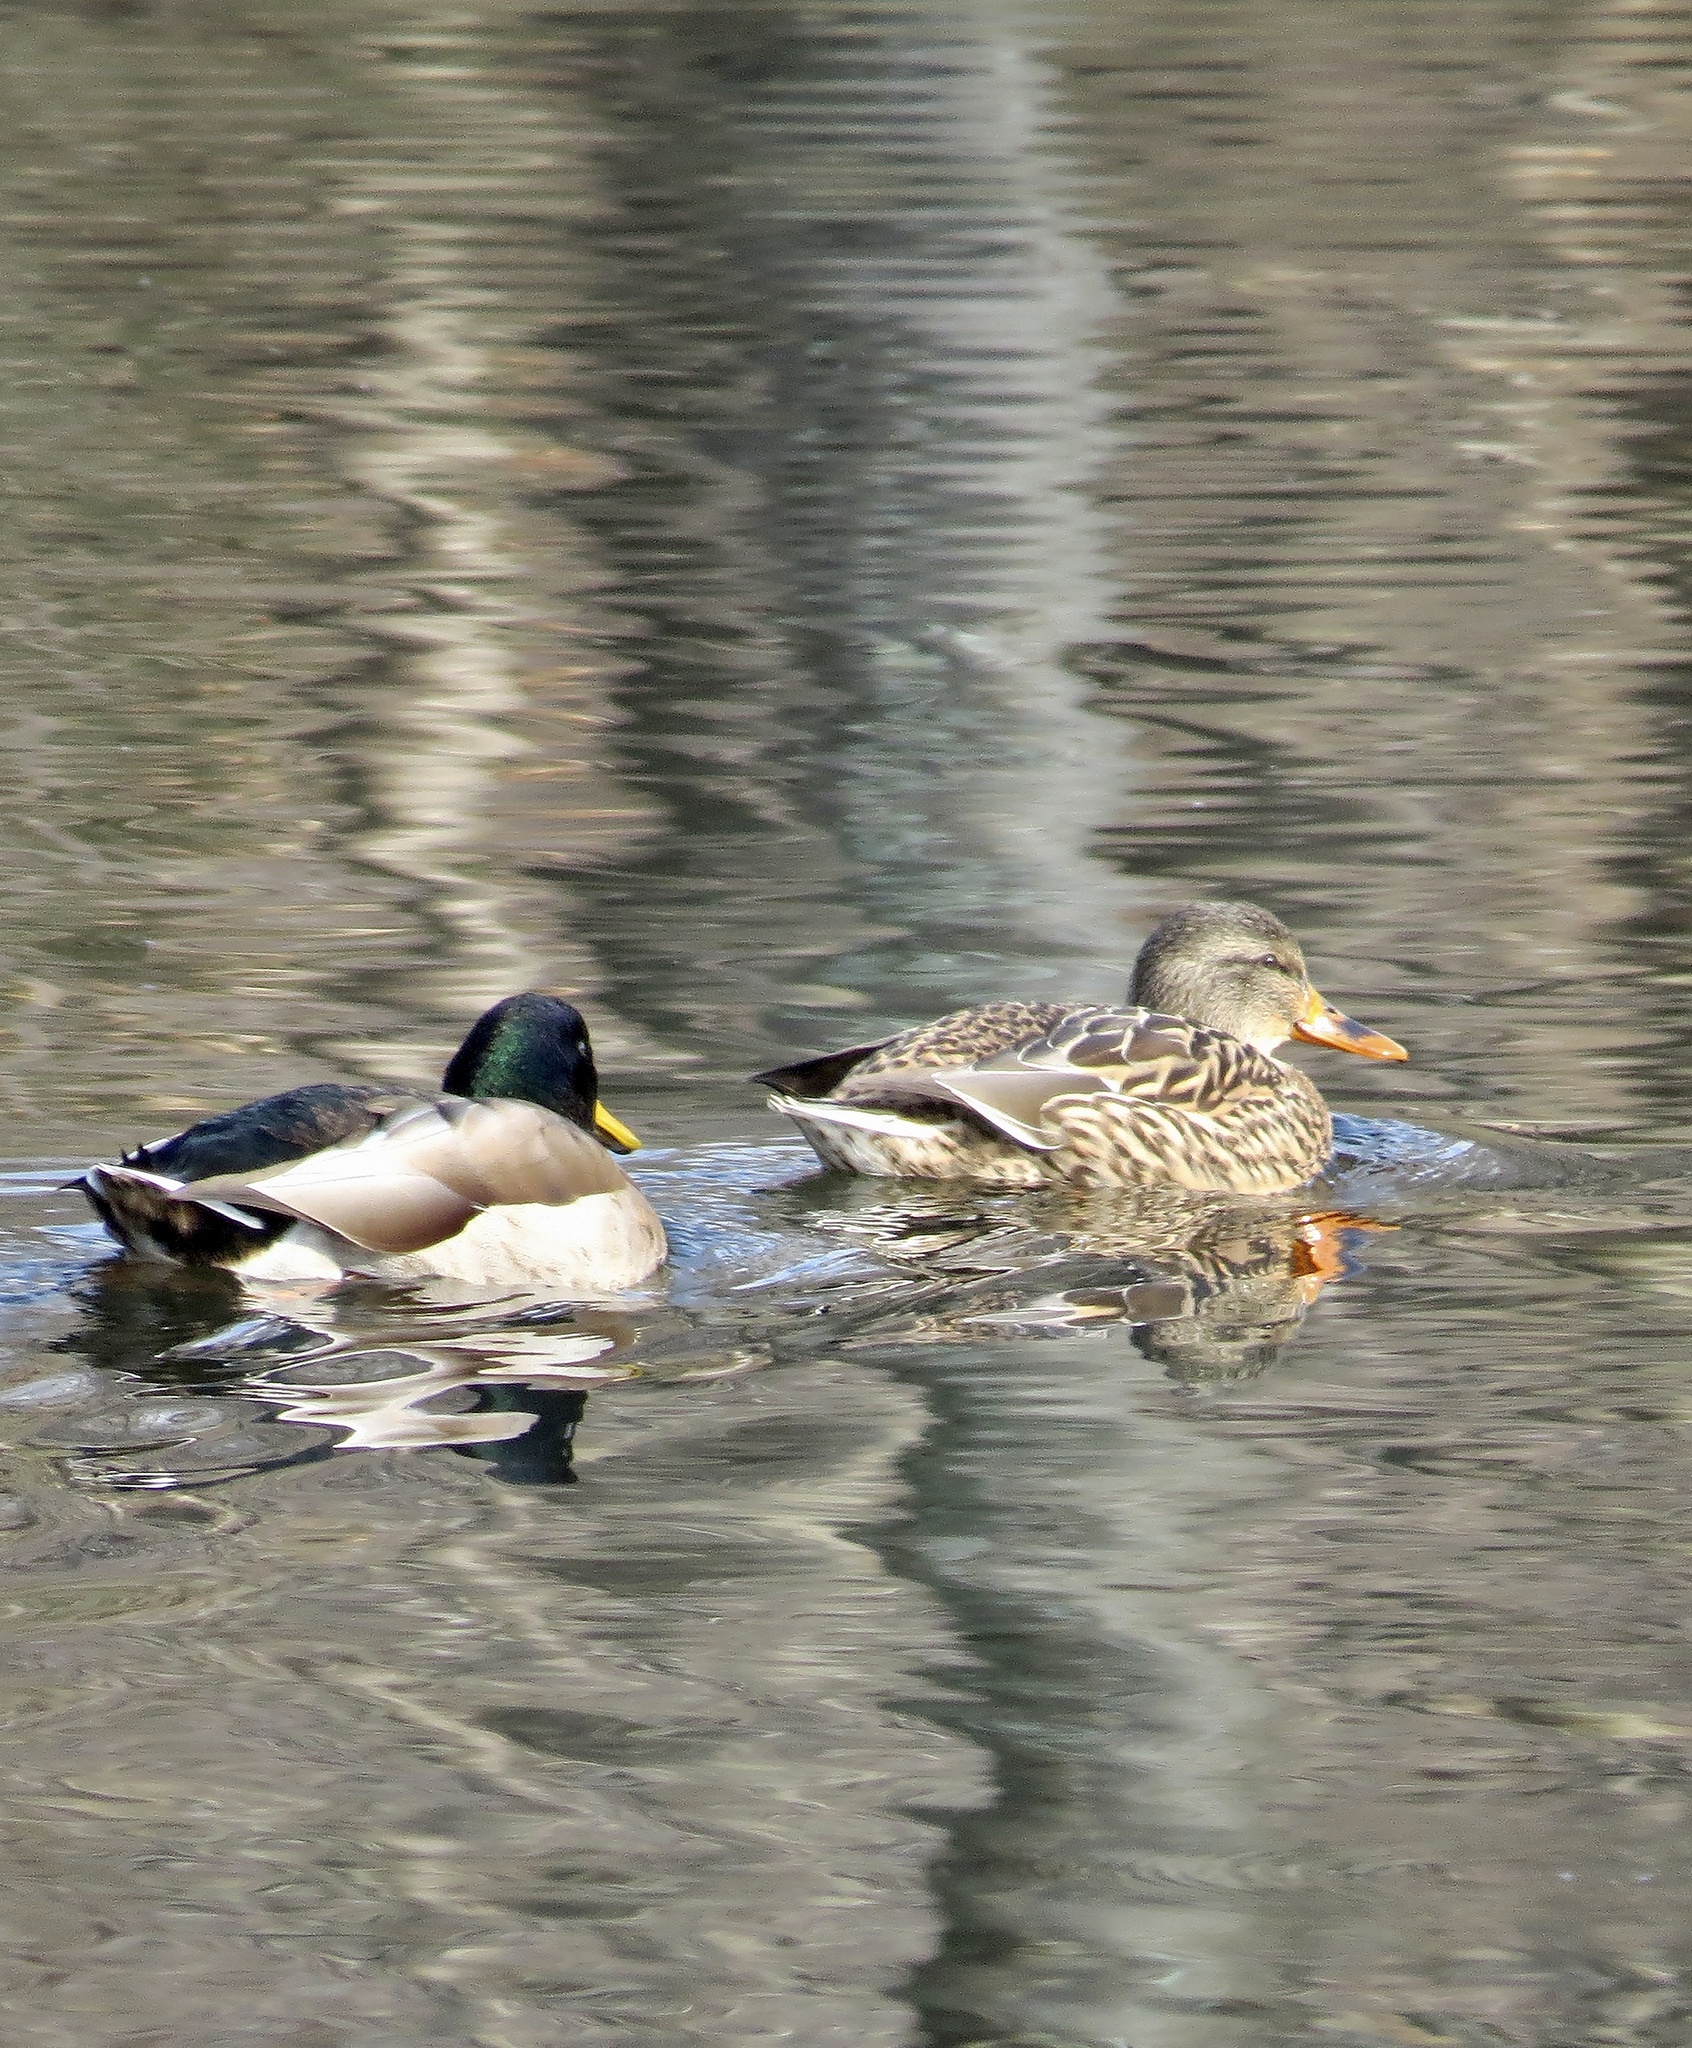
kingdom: Animalia
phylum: Chordata
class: Aves
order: Anseriformes
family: Anatidae
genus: Anas
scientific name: Anas platyrhynchos
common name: Mallard
